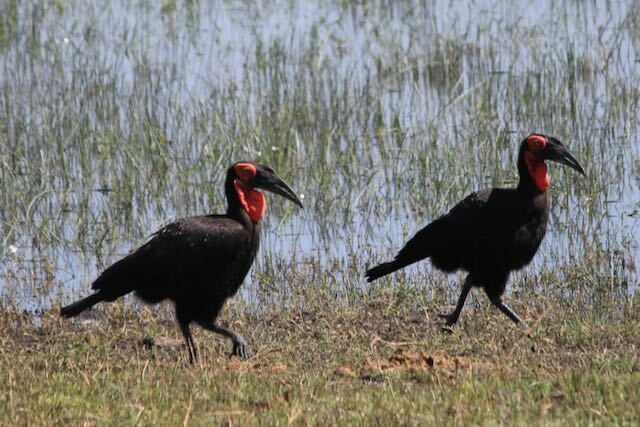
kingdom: Animalia
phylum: Chordata
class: Aves
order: Bucerotiformes
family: Bucorvidae
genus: Bucorvus
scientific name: Bucorvus leadbeateri
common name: Southern ground-hornbill
